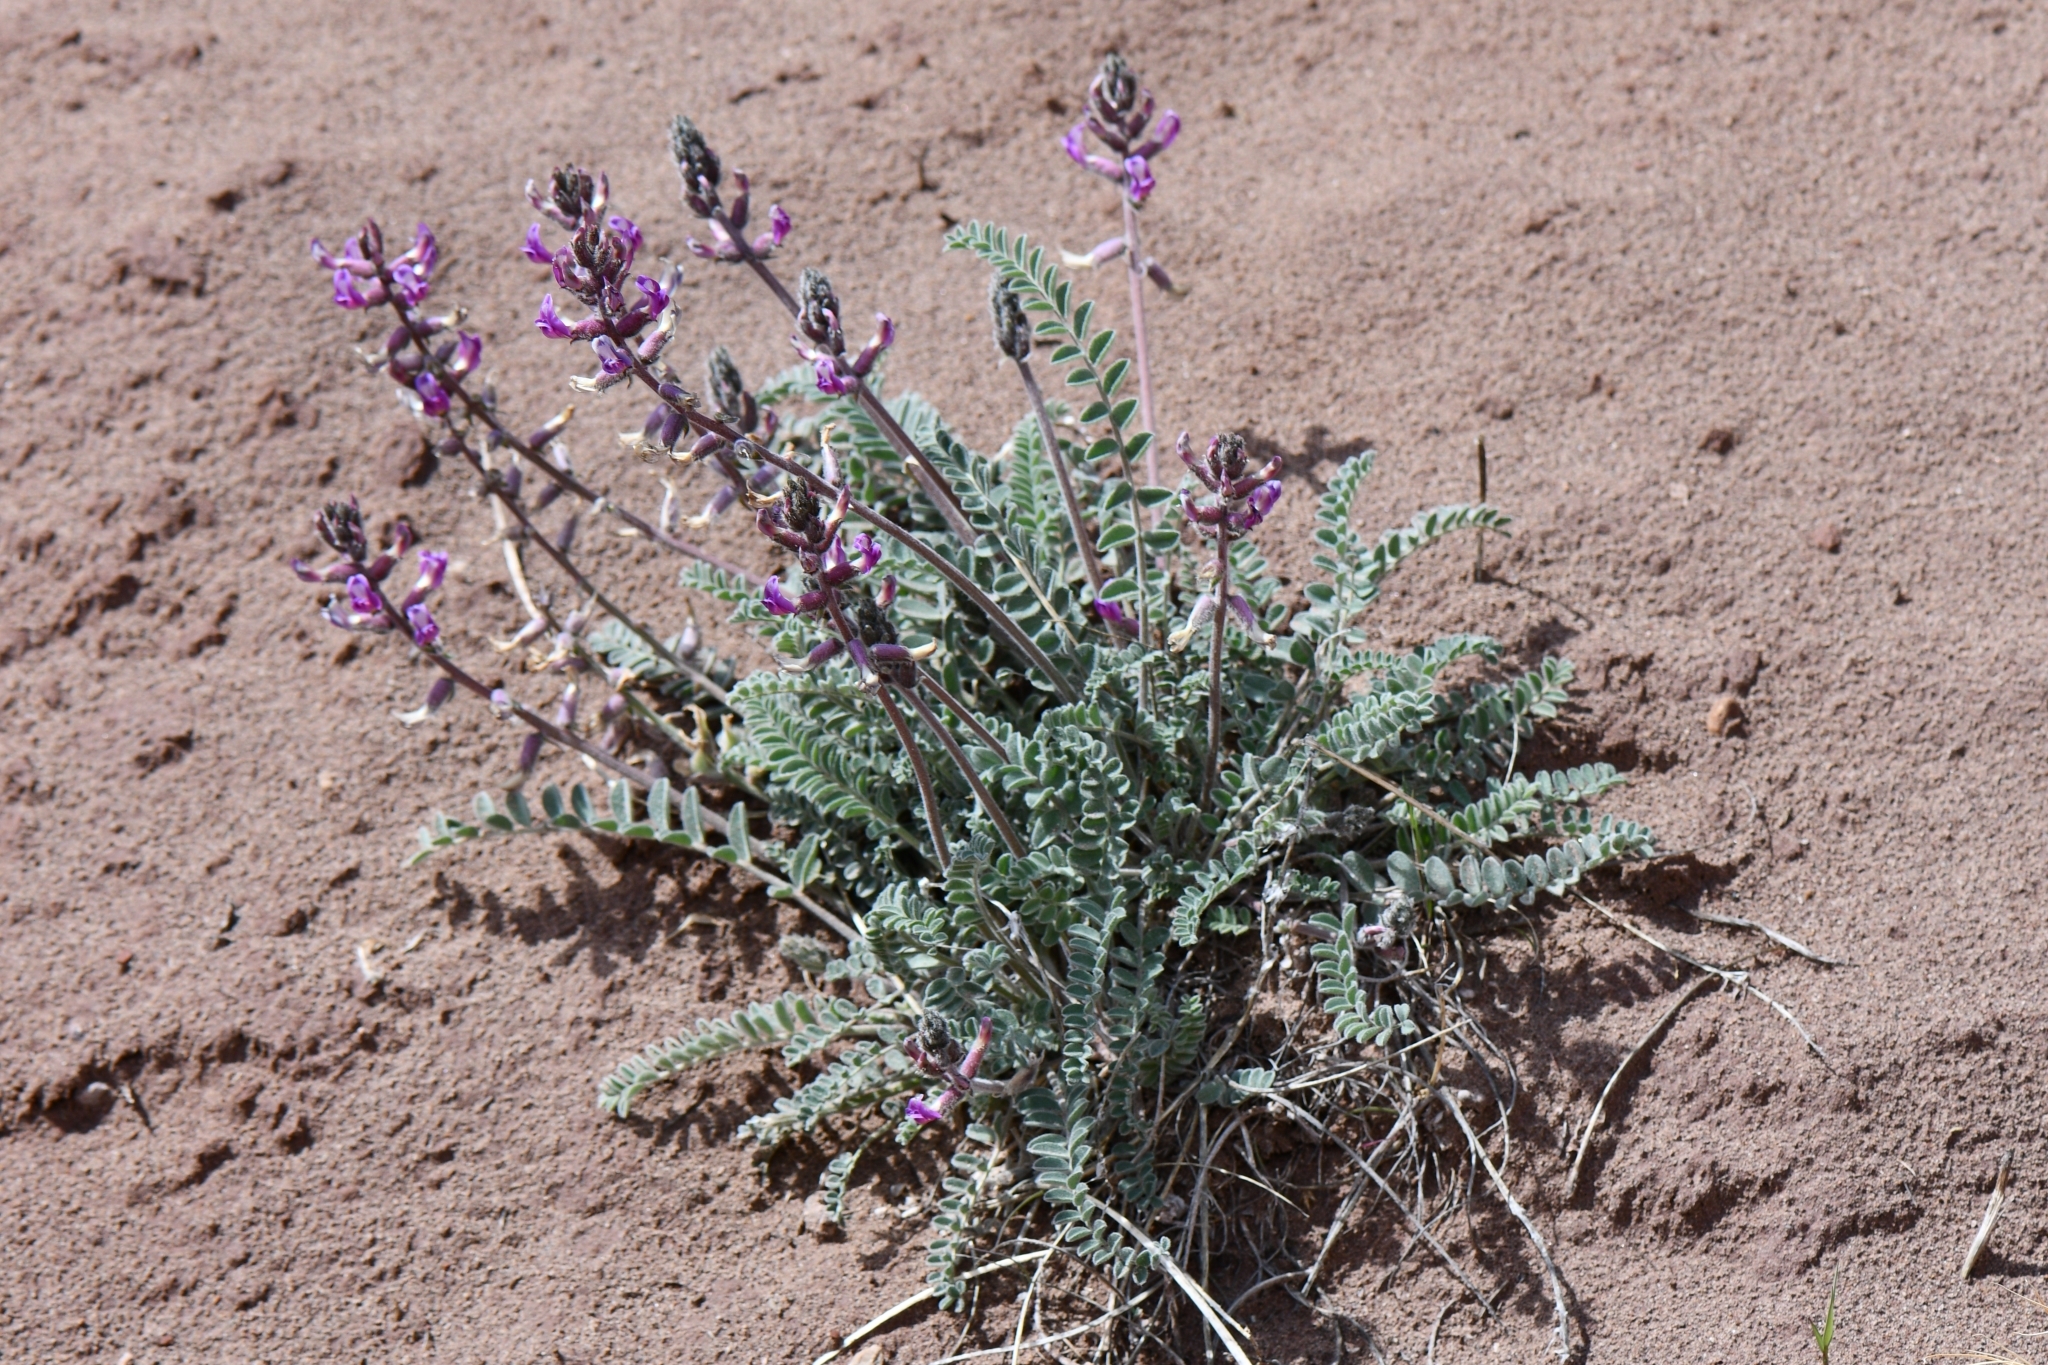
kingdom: Plantae
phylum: Tracheophyta
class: Magnoliopsida
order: Fabales
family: Fabaceae
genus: Astragalus
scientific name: Astragalus mollissimus
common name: Woolly locoweed
